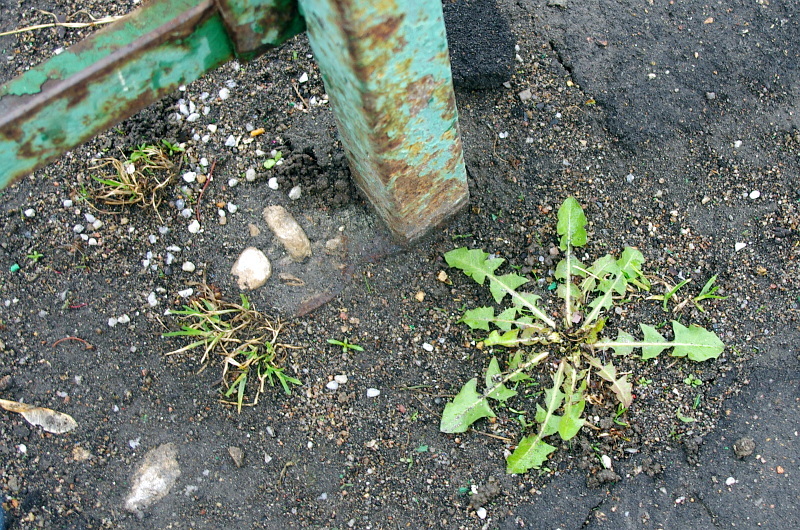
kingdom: Plantae
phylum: Tracheophyta
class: Magnoliopsida
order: Asterales
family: Asteraceae
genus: Taraxacum
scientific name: Taraxacum officinale
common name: Common dandelion
